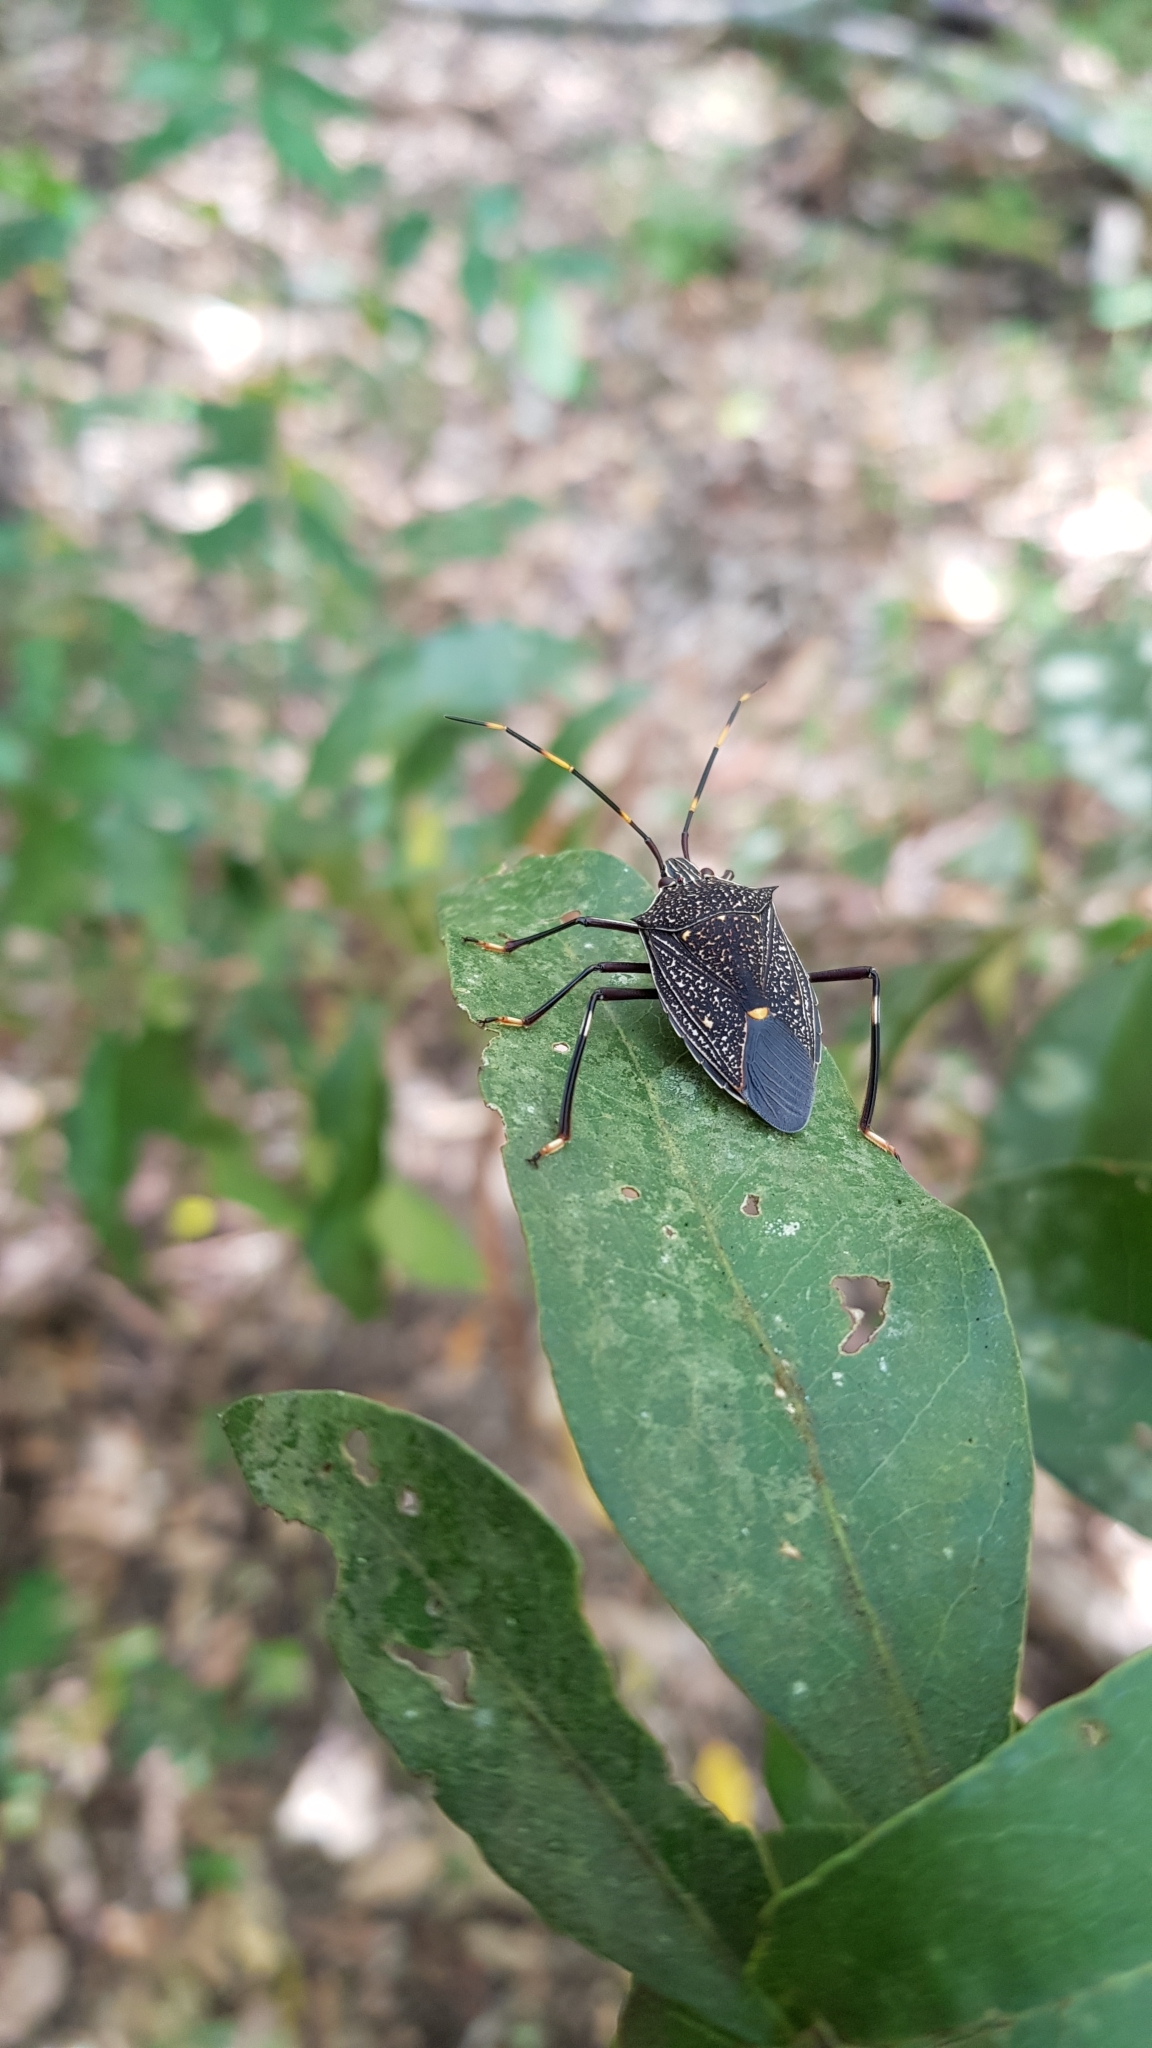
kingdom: Animalia
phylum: Arthropoda
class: Insecta
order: Hemiptera
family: Pentatomidae
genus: Poecilometis
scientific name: Poecilometis
